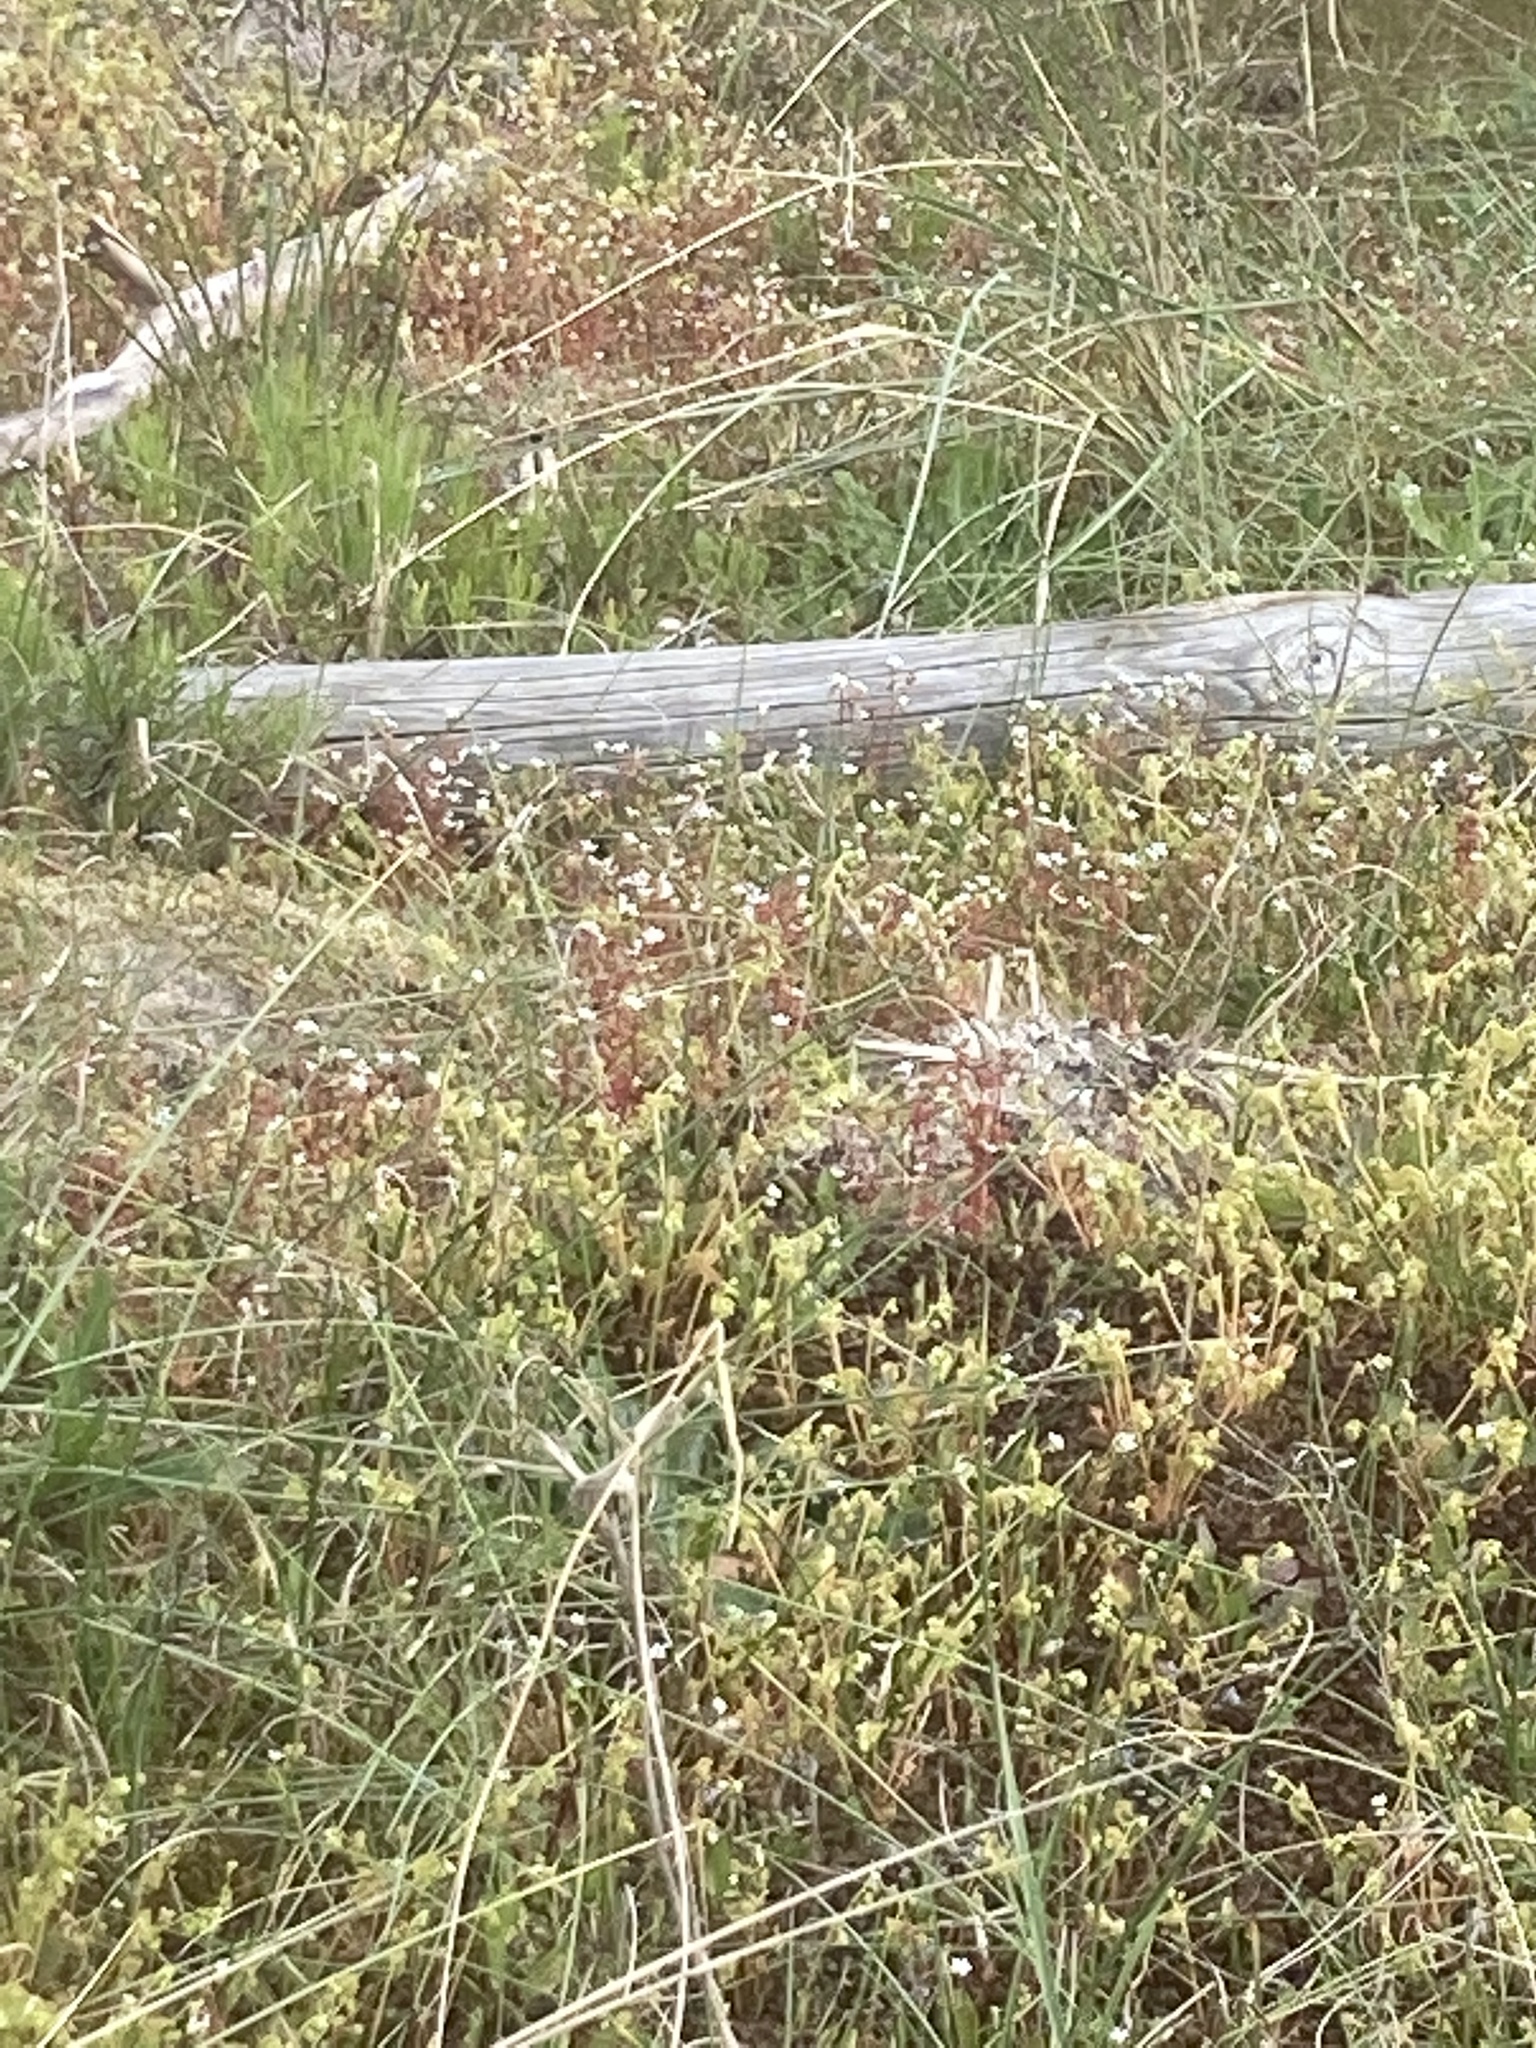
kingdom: Plantae
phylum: Tracheophyta
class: Magnoliopsida
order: Saxifragales
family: Saxifragaceae
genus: Saxifraga
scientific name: Saxifraga tridactylites
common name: Rue-leaved saxifrage
